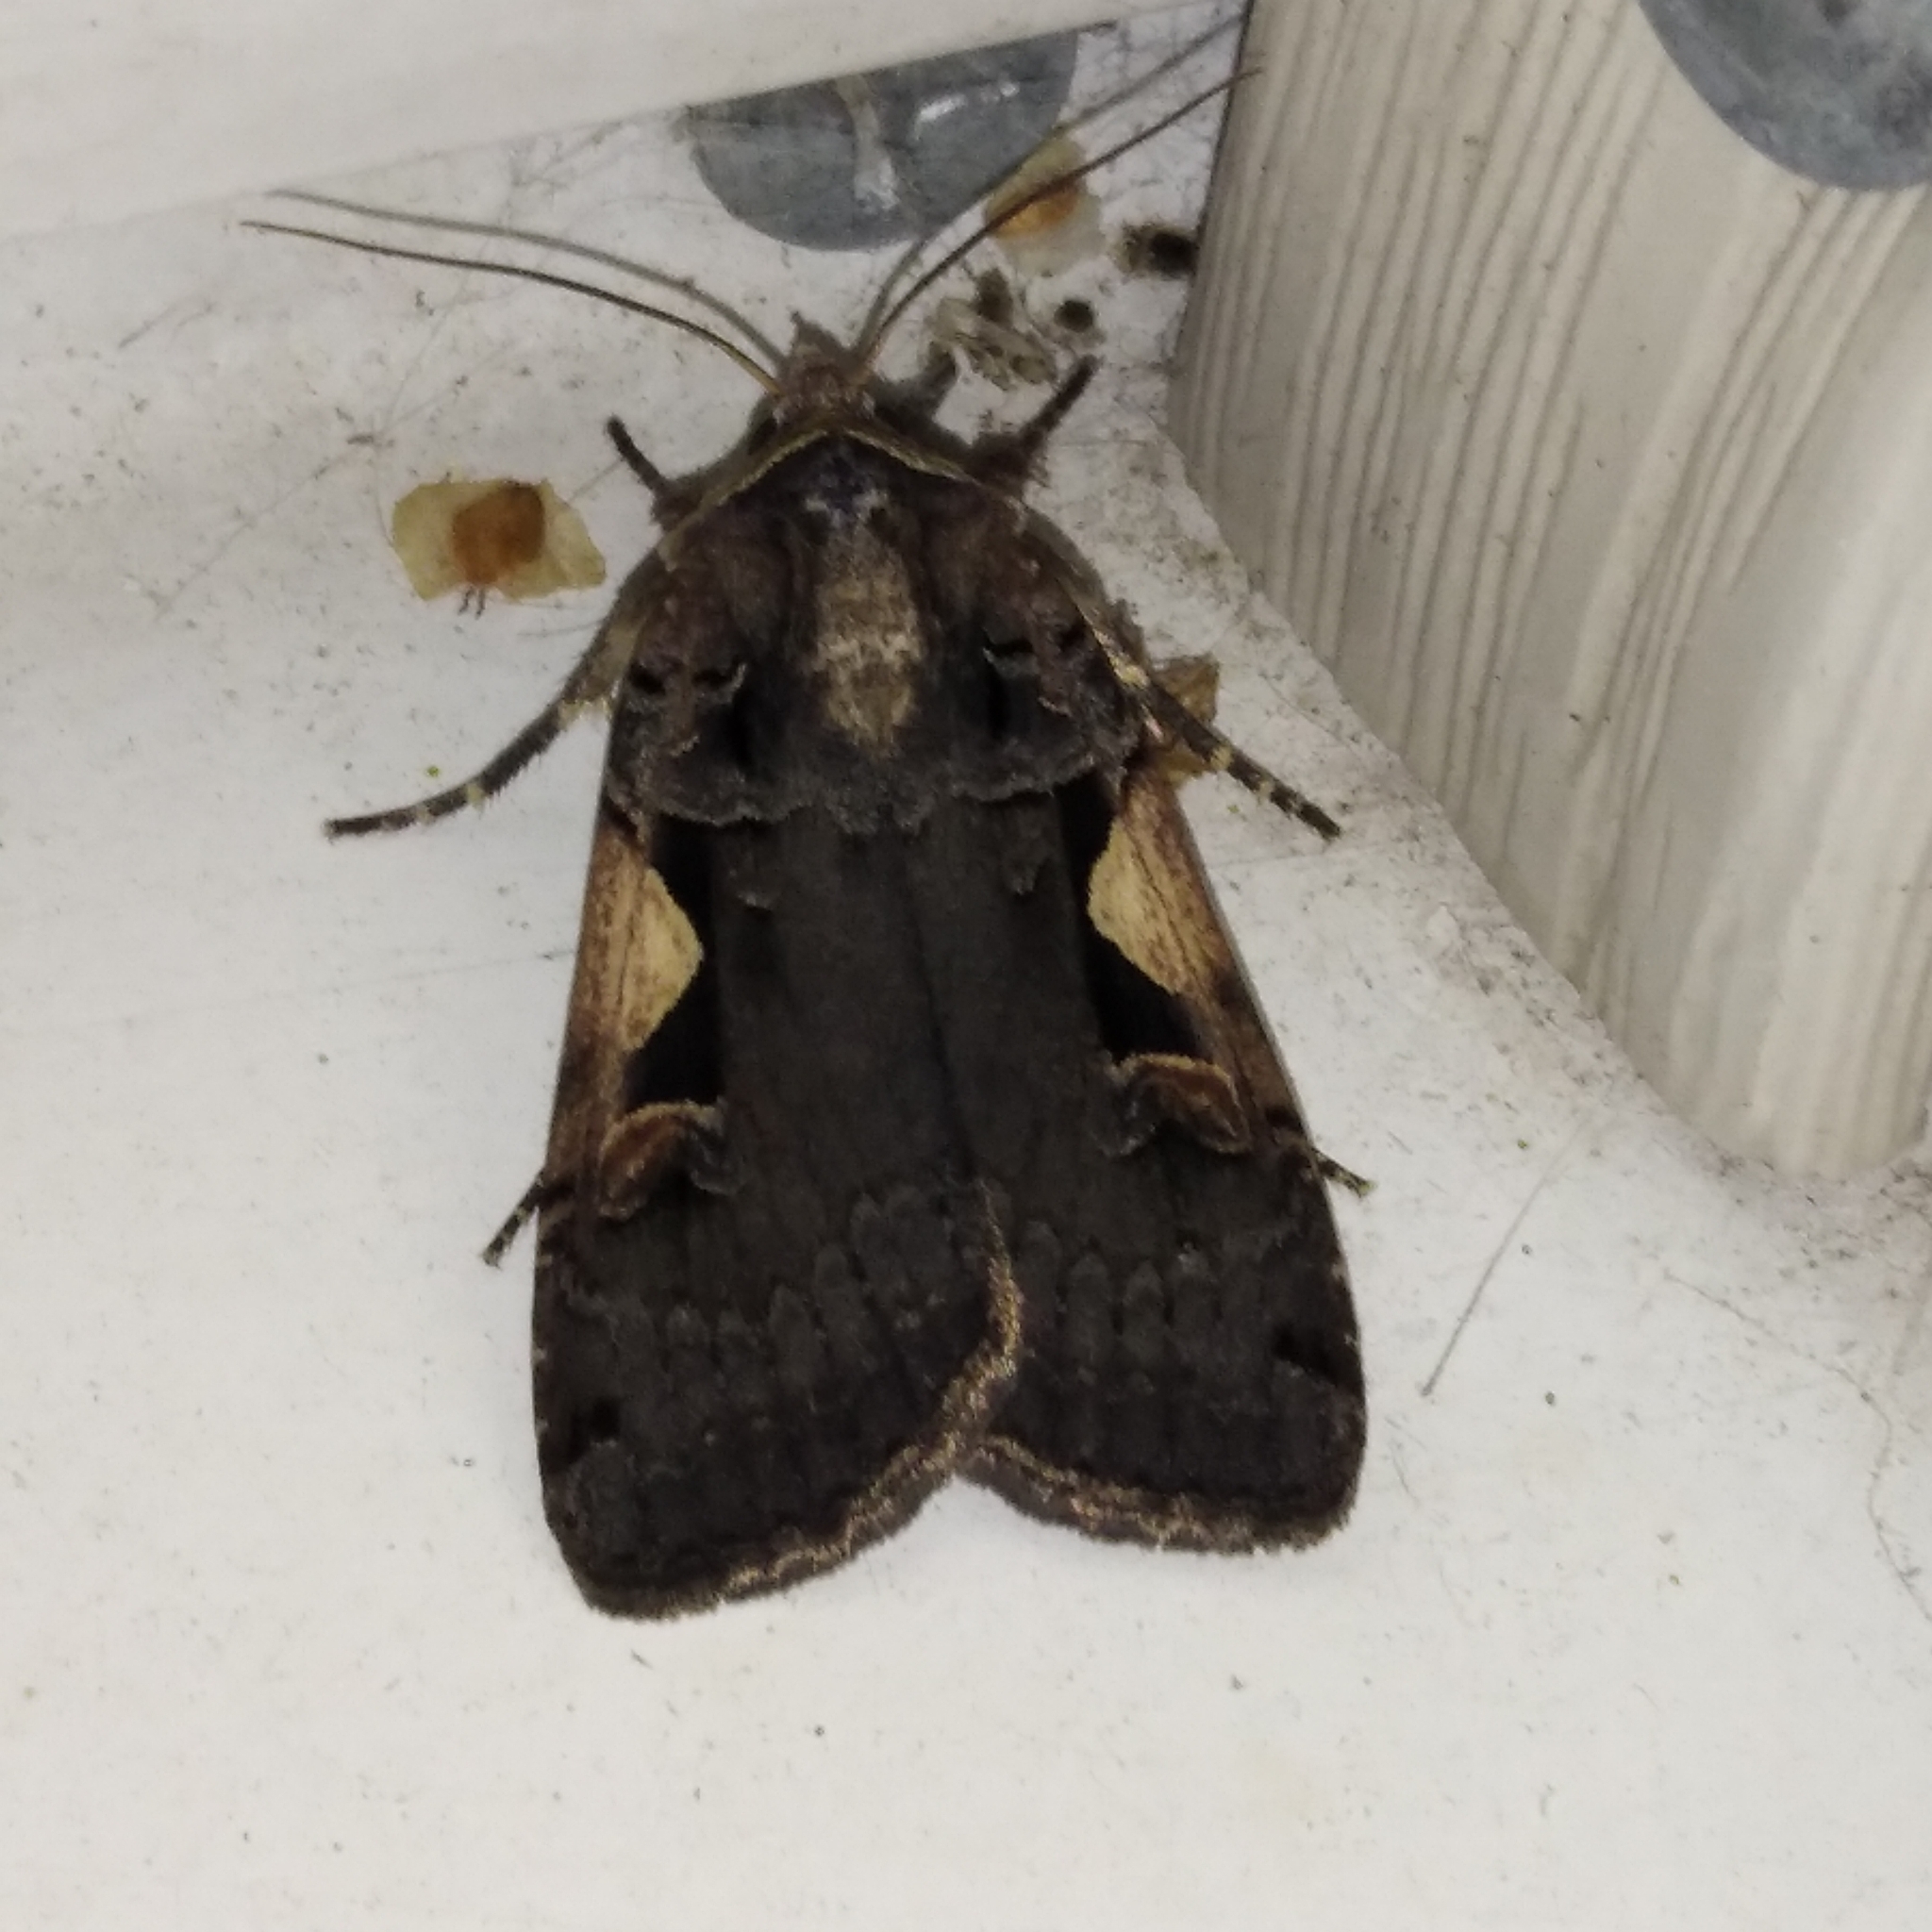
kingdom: Animalia
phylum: Arthropoda
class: Insecta
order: Lepidoptera
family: Noctuidae
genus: Xestia
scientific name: Xestia c-nigrum
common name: Setaceous hebrew character
